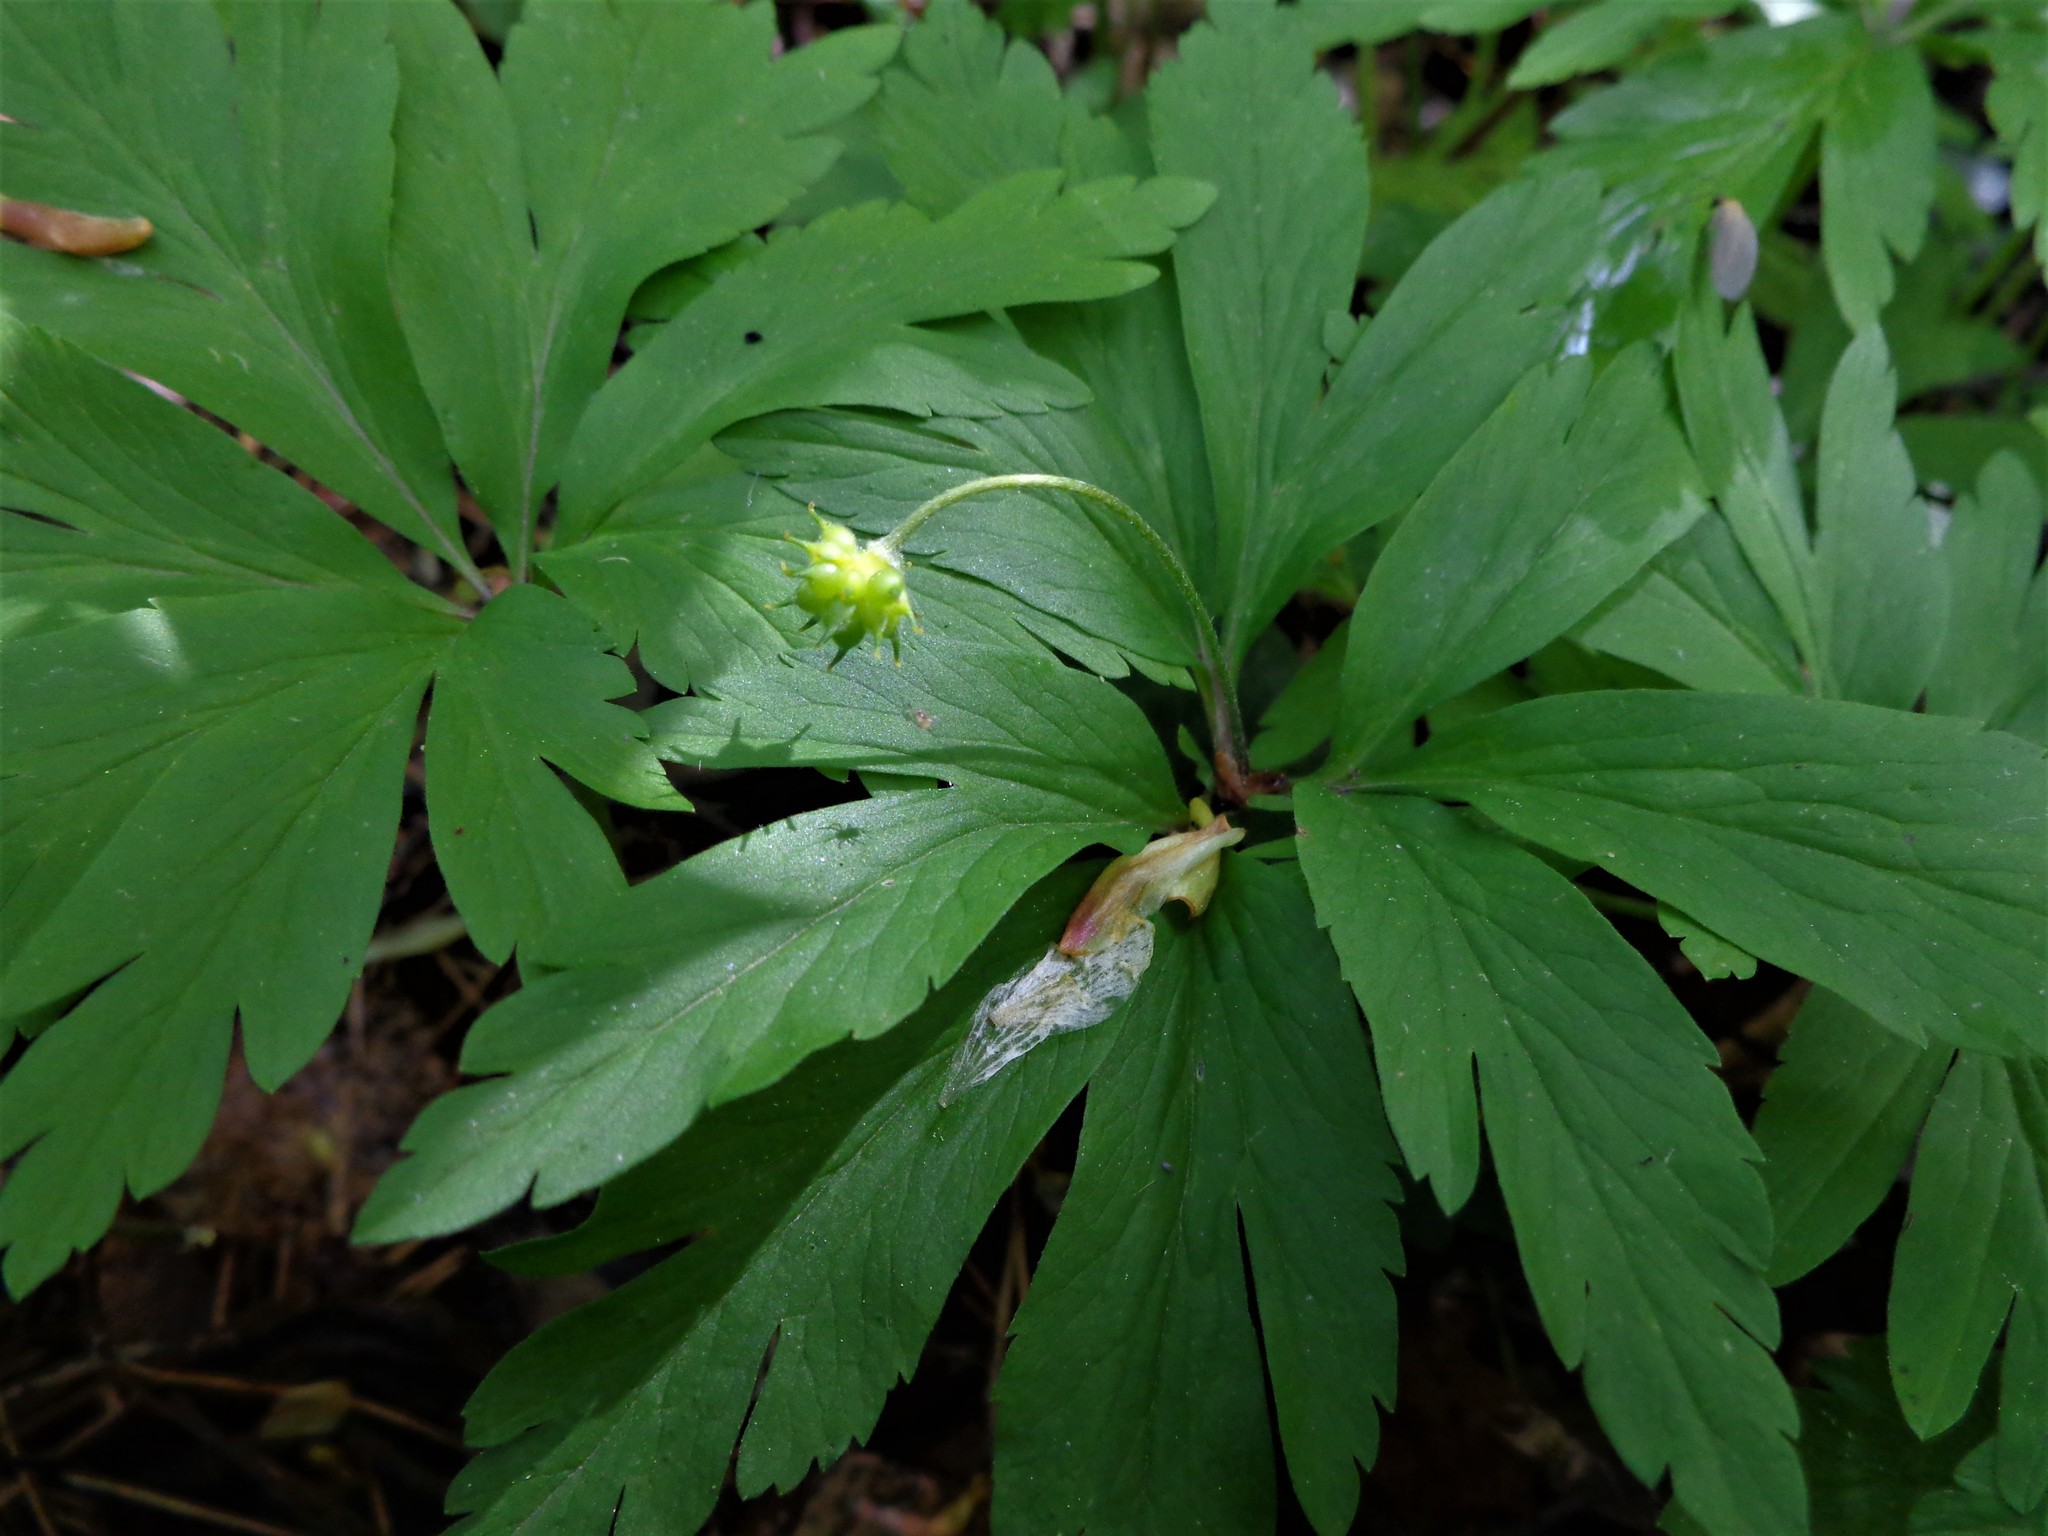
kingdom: Plantae
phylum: Tracheophyta
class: Magnoliopsida
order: Ranunculales
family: Ranunculaceae
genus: Anemone
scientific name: Anemone ranunculoides
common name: Yellow anemone
